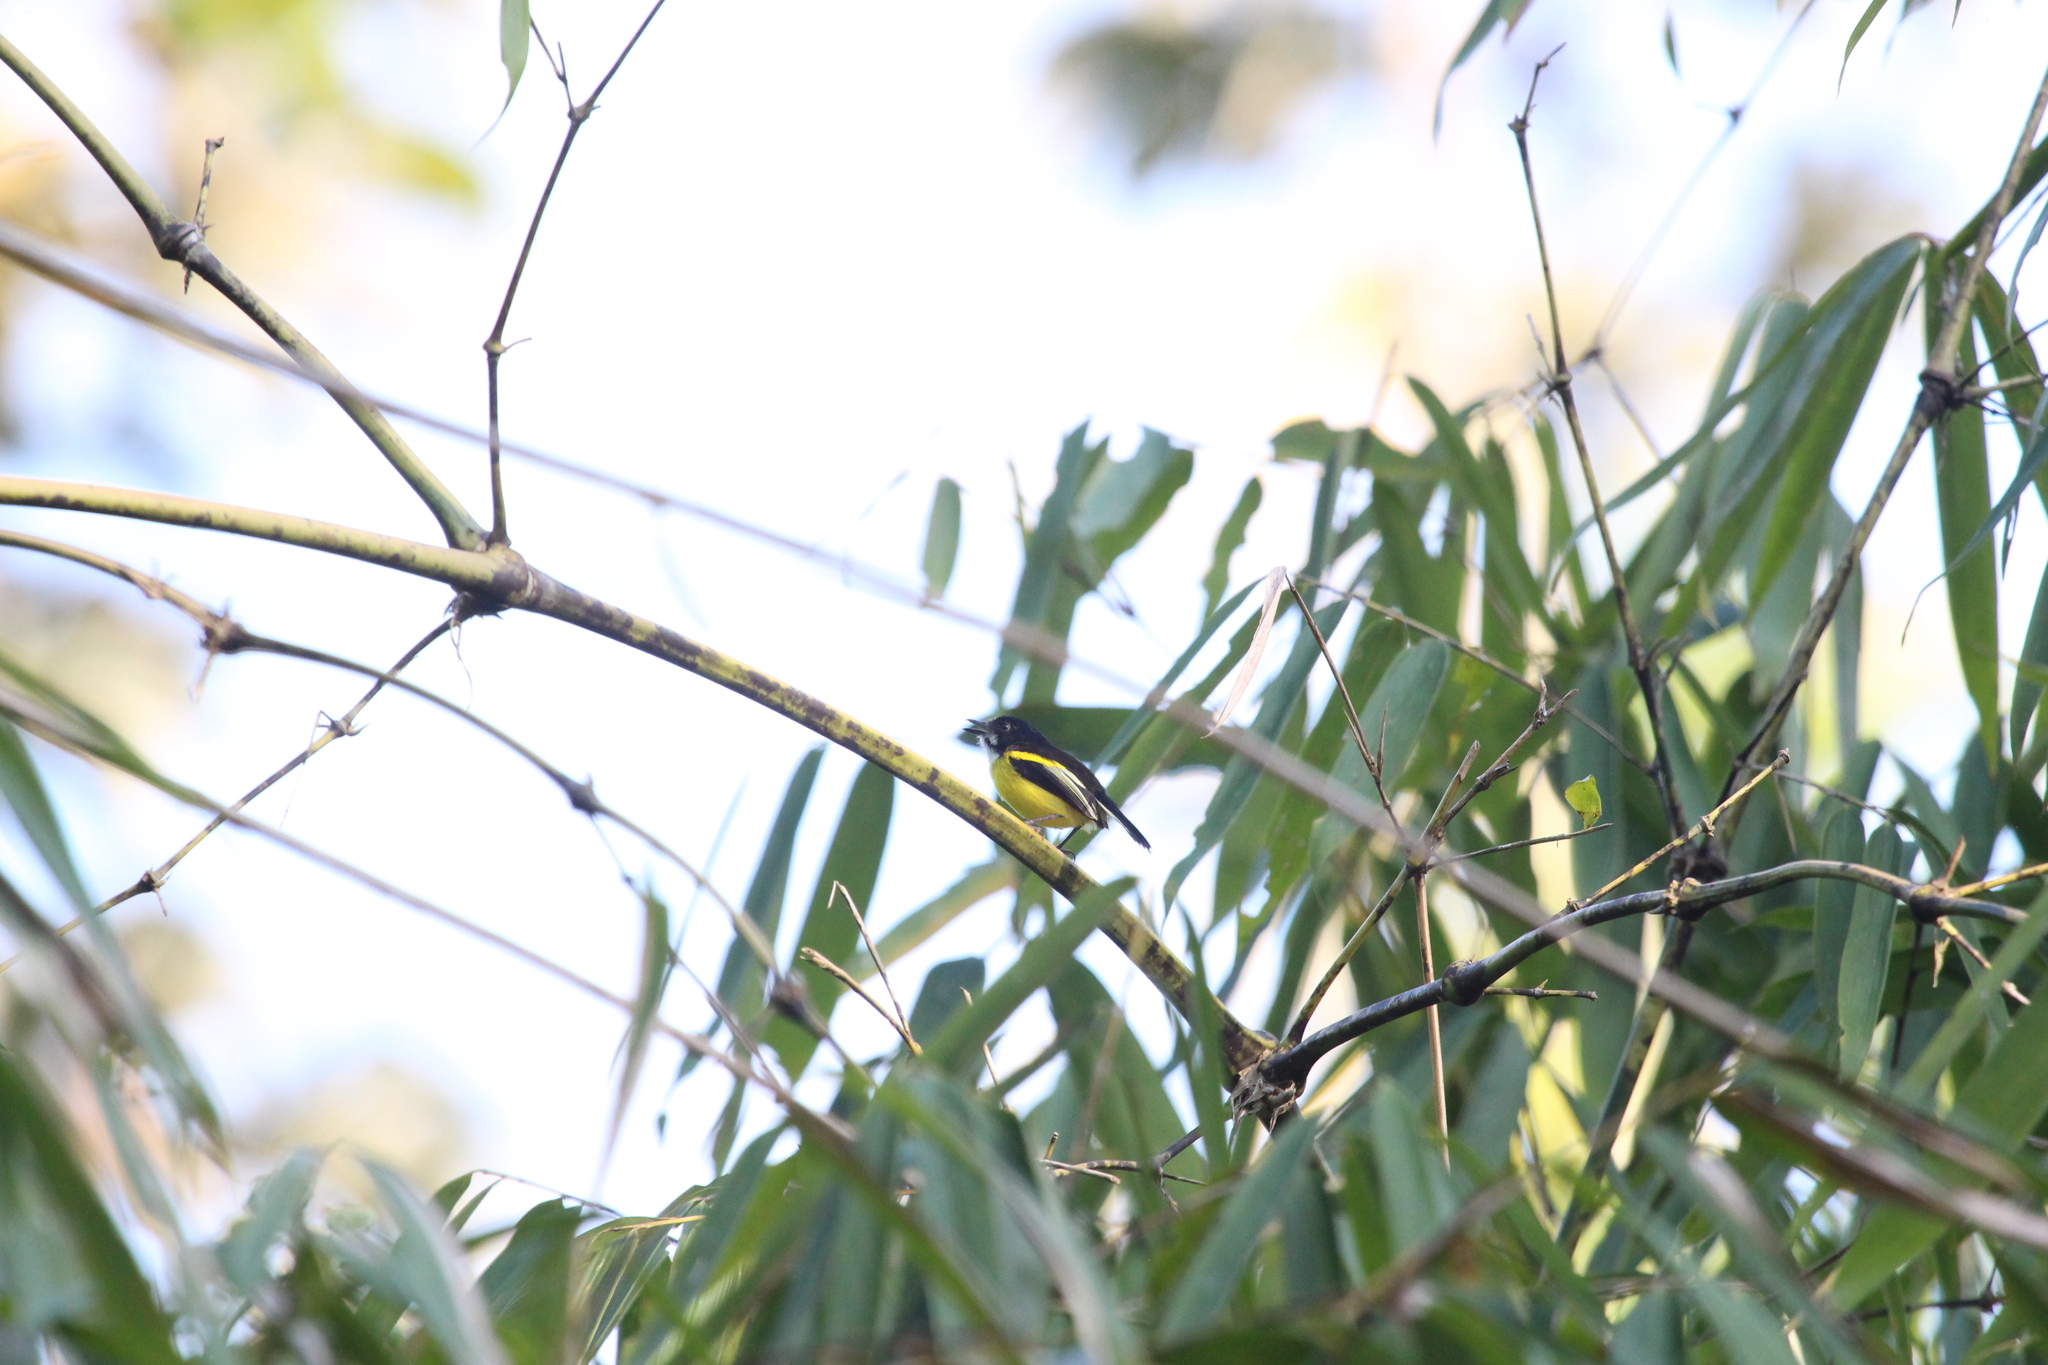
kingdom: Animalia
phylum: Chordata
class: Aves
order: Passeriformes
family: Tyrannidae
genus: Poecilotriccus
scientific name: Poecilotriccus calopterus
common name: Golden-winged tody-flycatcher
